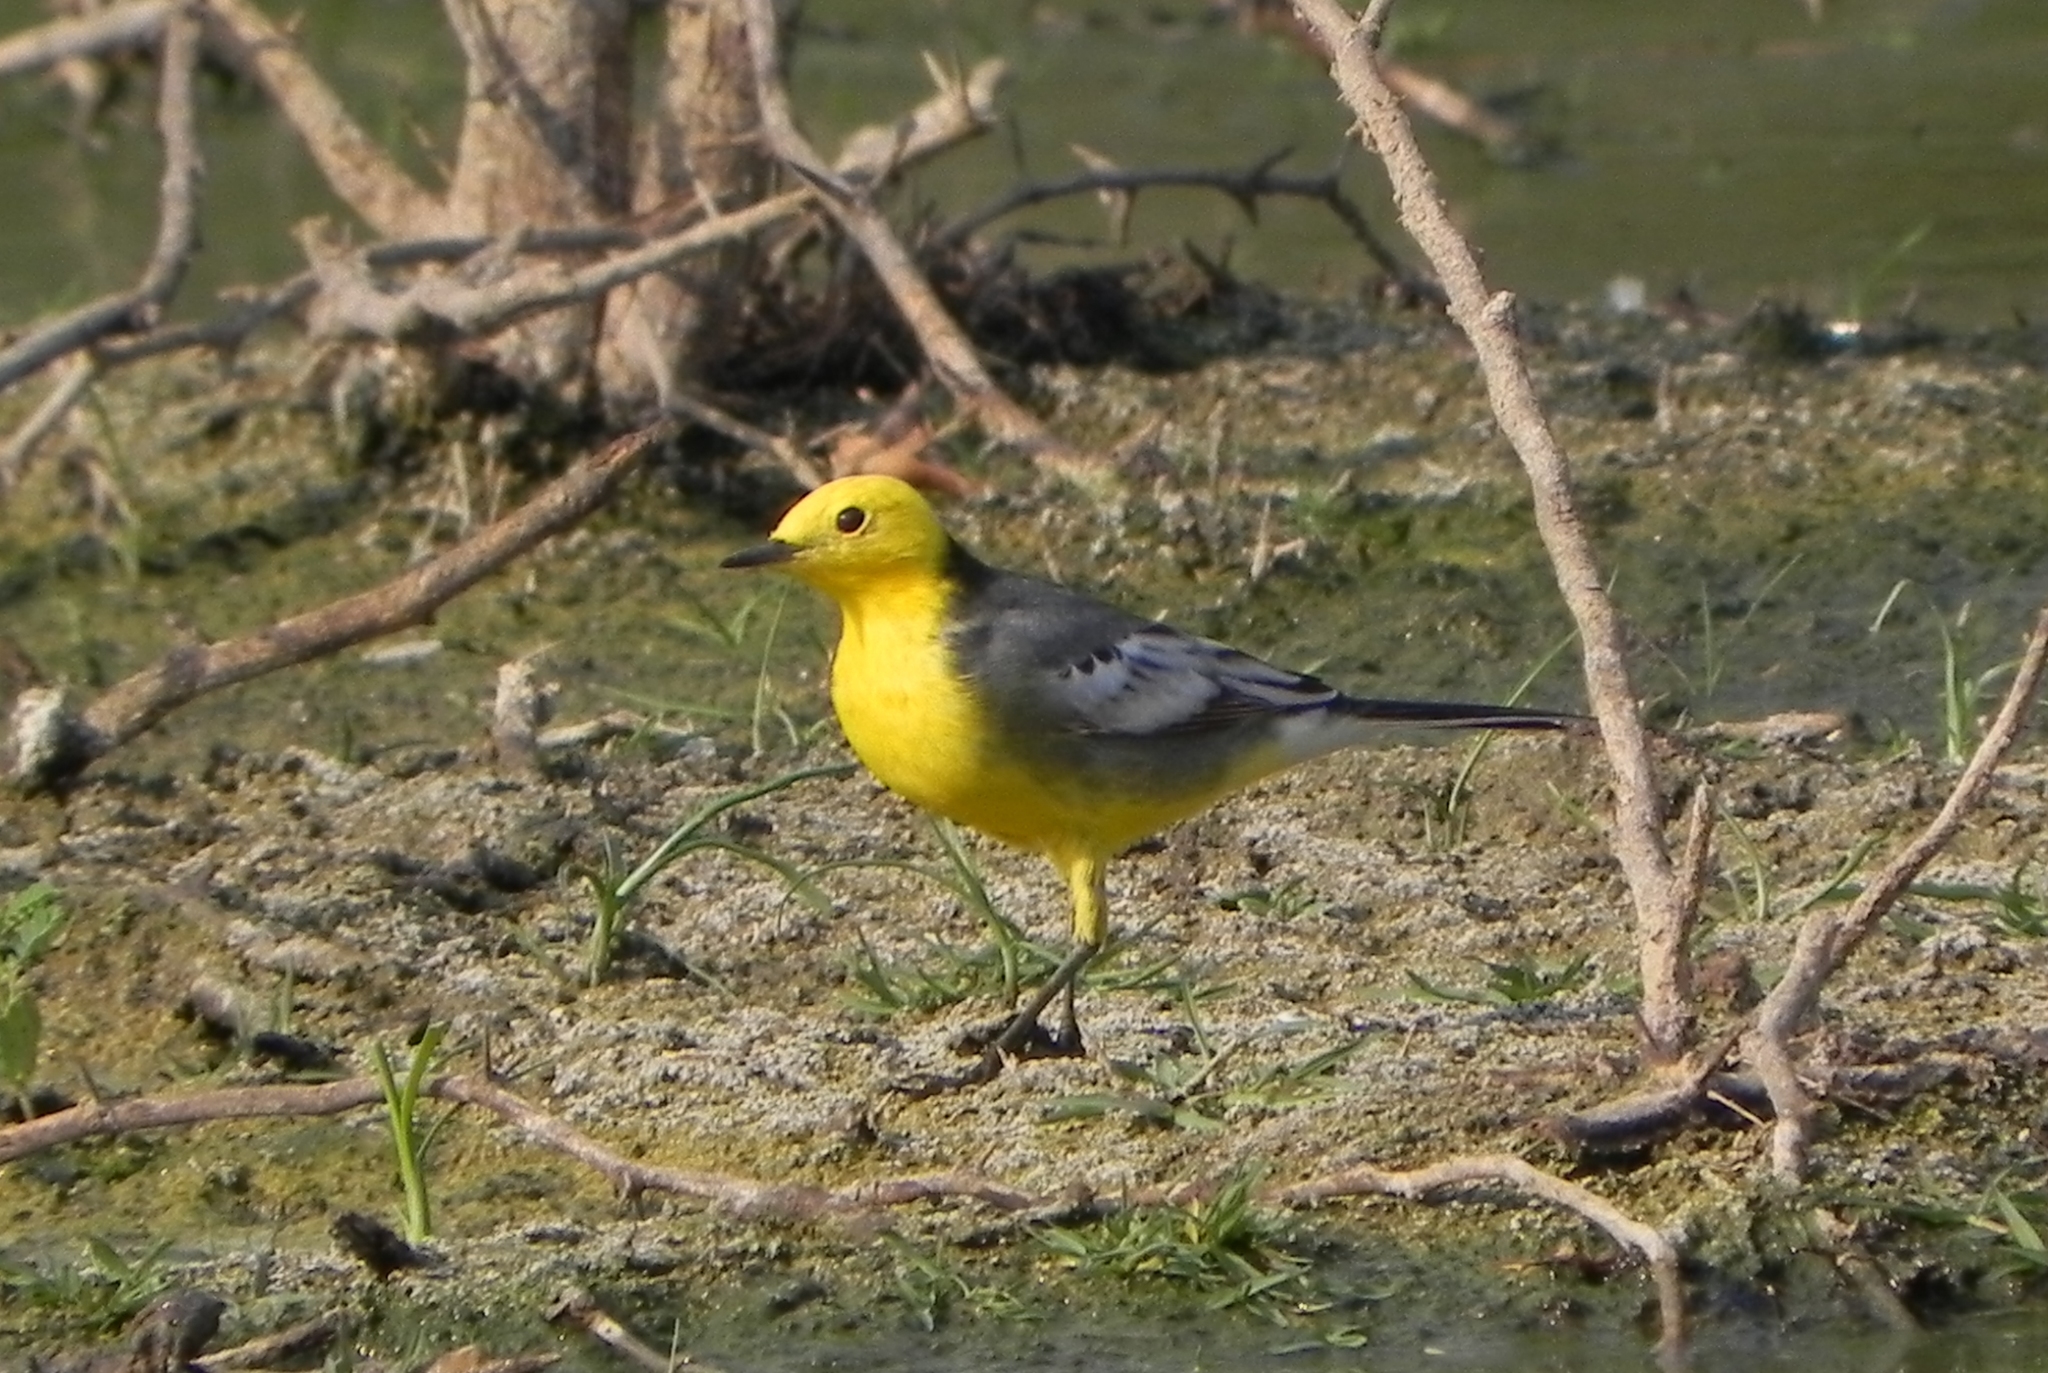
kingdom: Animalia
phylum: Chordata
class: Aves
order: Passeriformes
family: Motacillidae
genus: Motacilla
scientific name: Motacilla citreola
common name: Citrine wagtail
